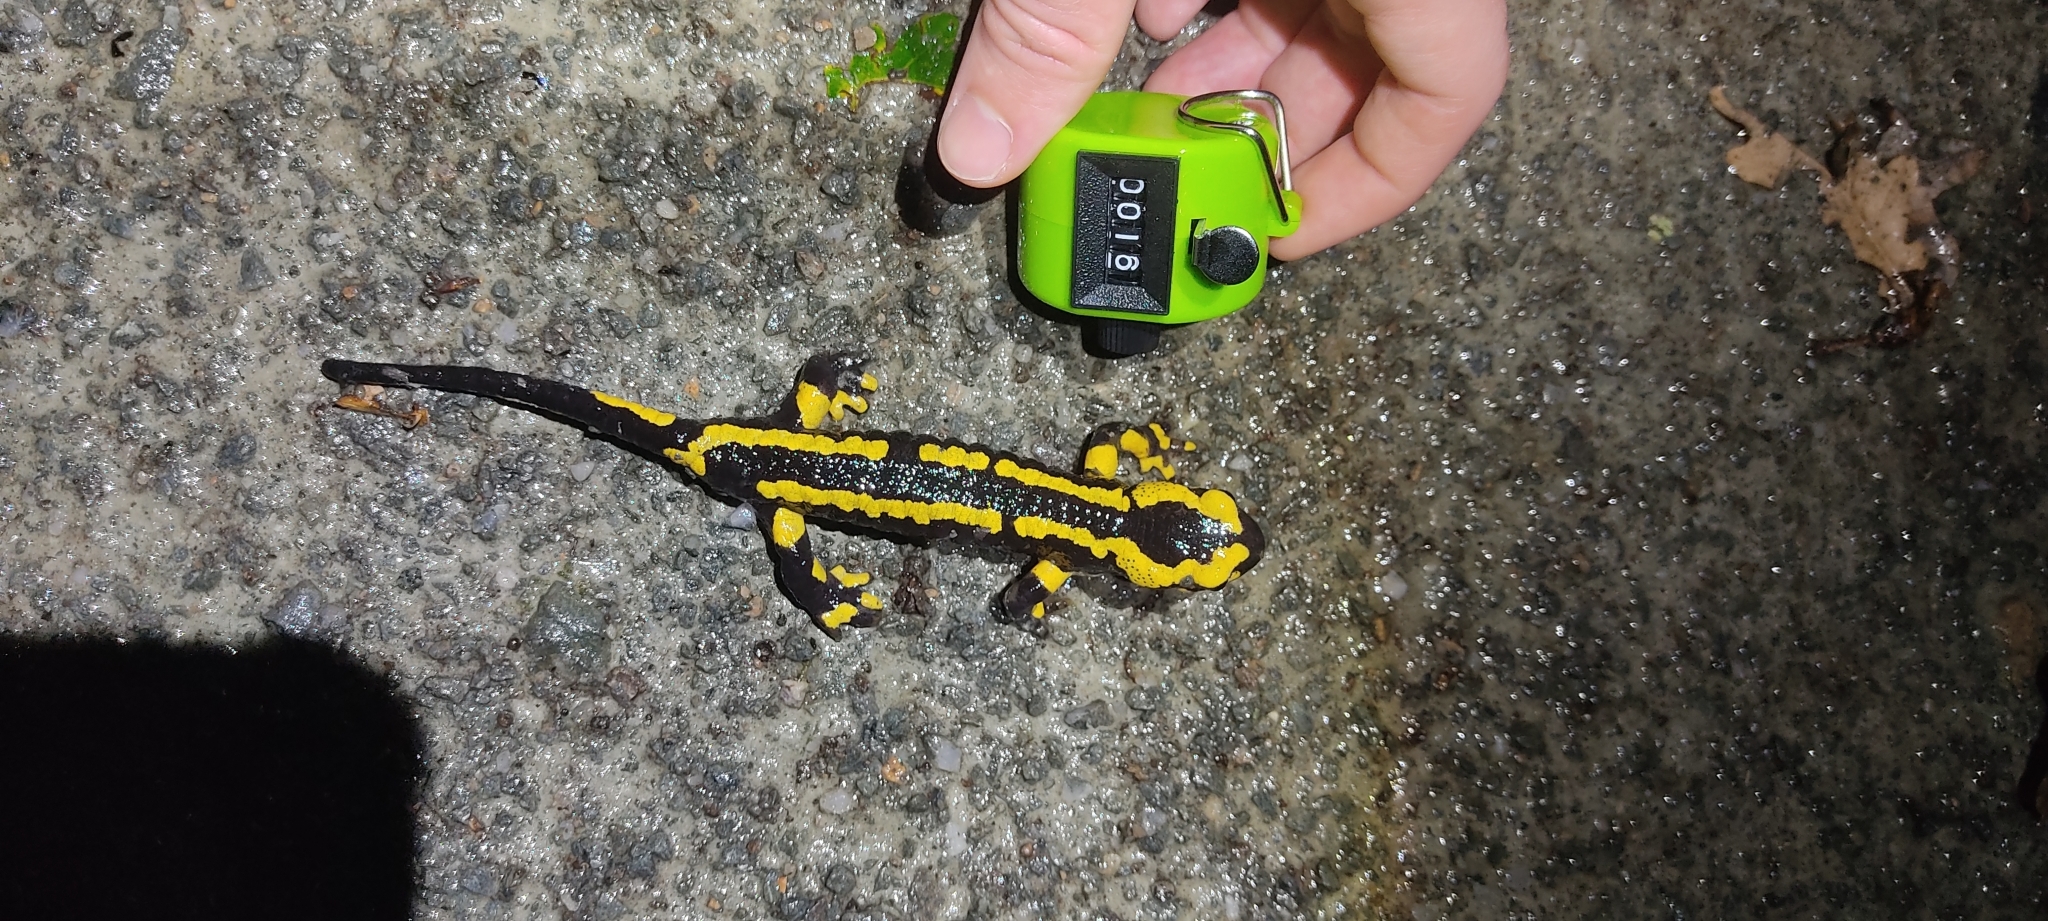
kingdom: Animalia
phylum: Chordata
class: Amphibia
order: Caudata
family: Salamandridae
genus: Salamandra
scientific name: Salamandra salamandra
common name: Fire salamander
